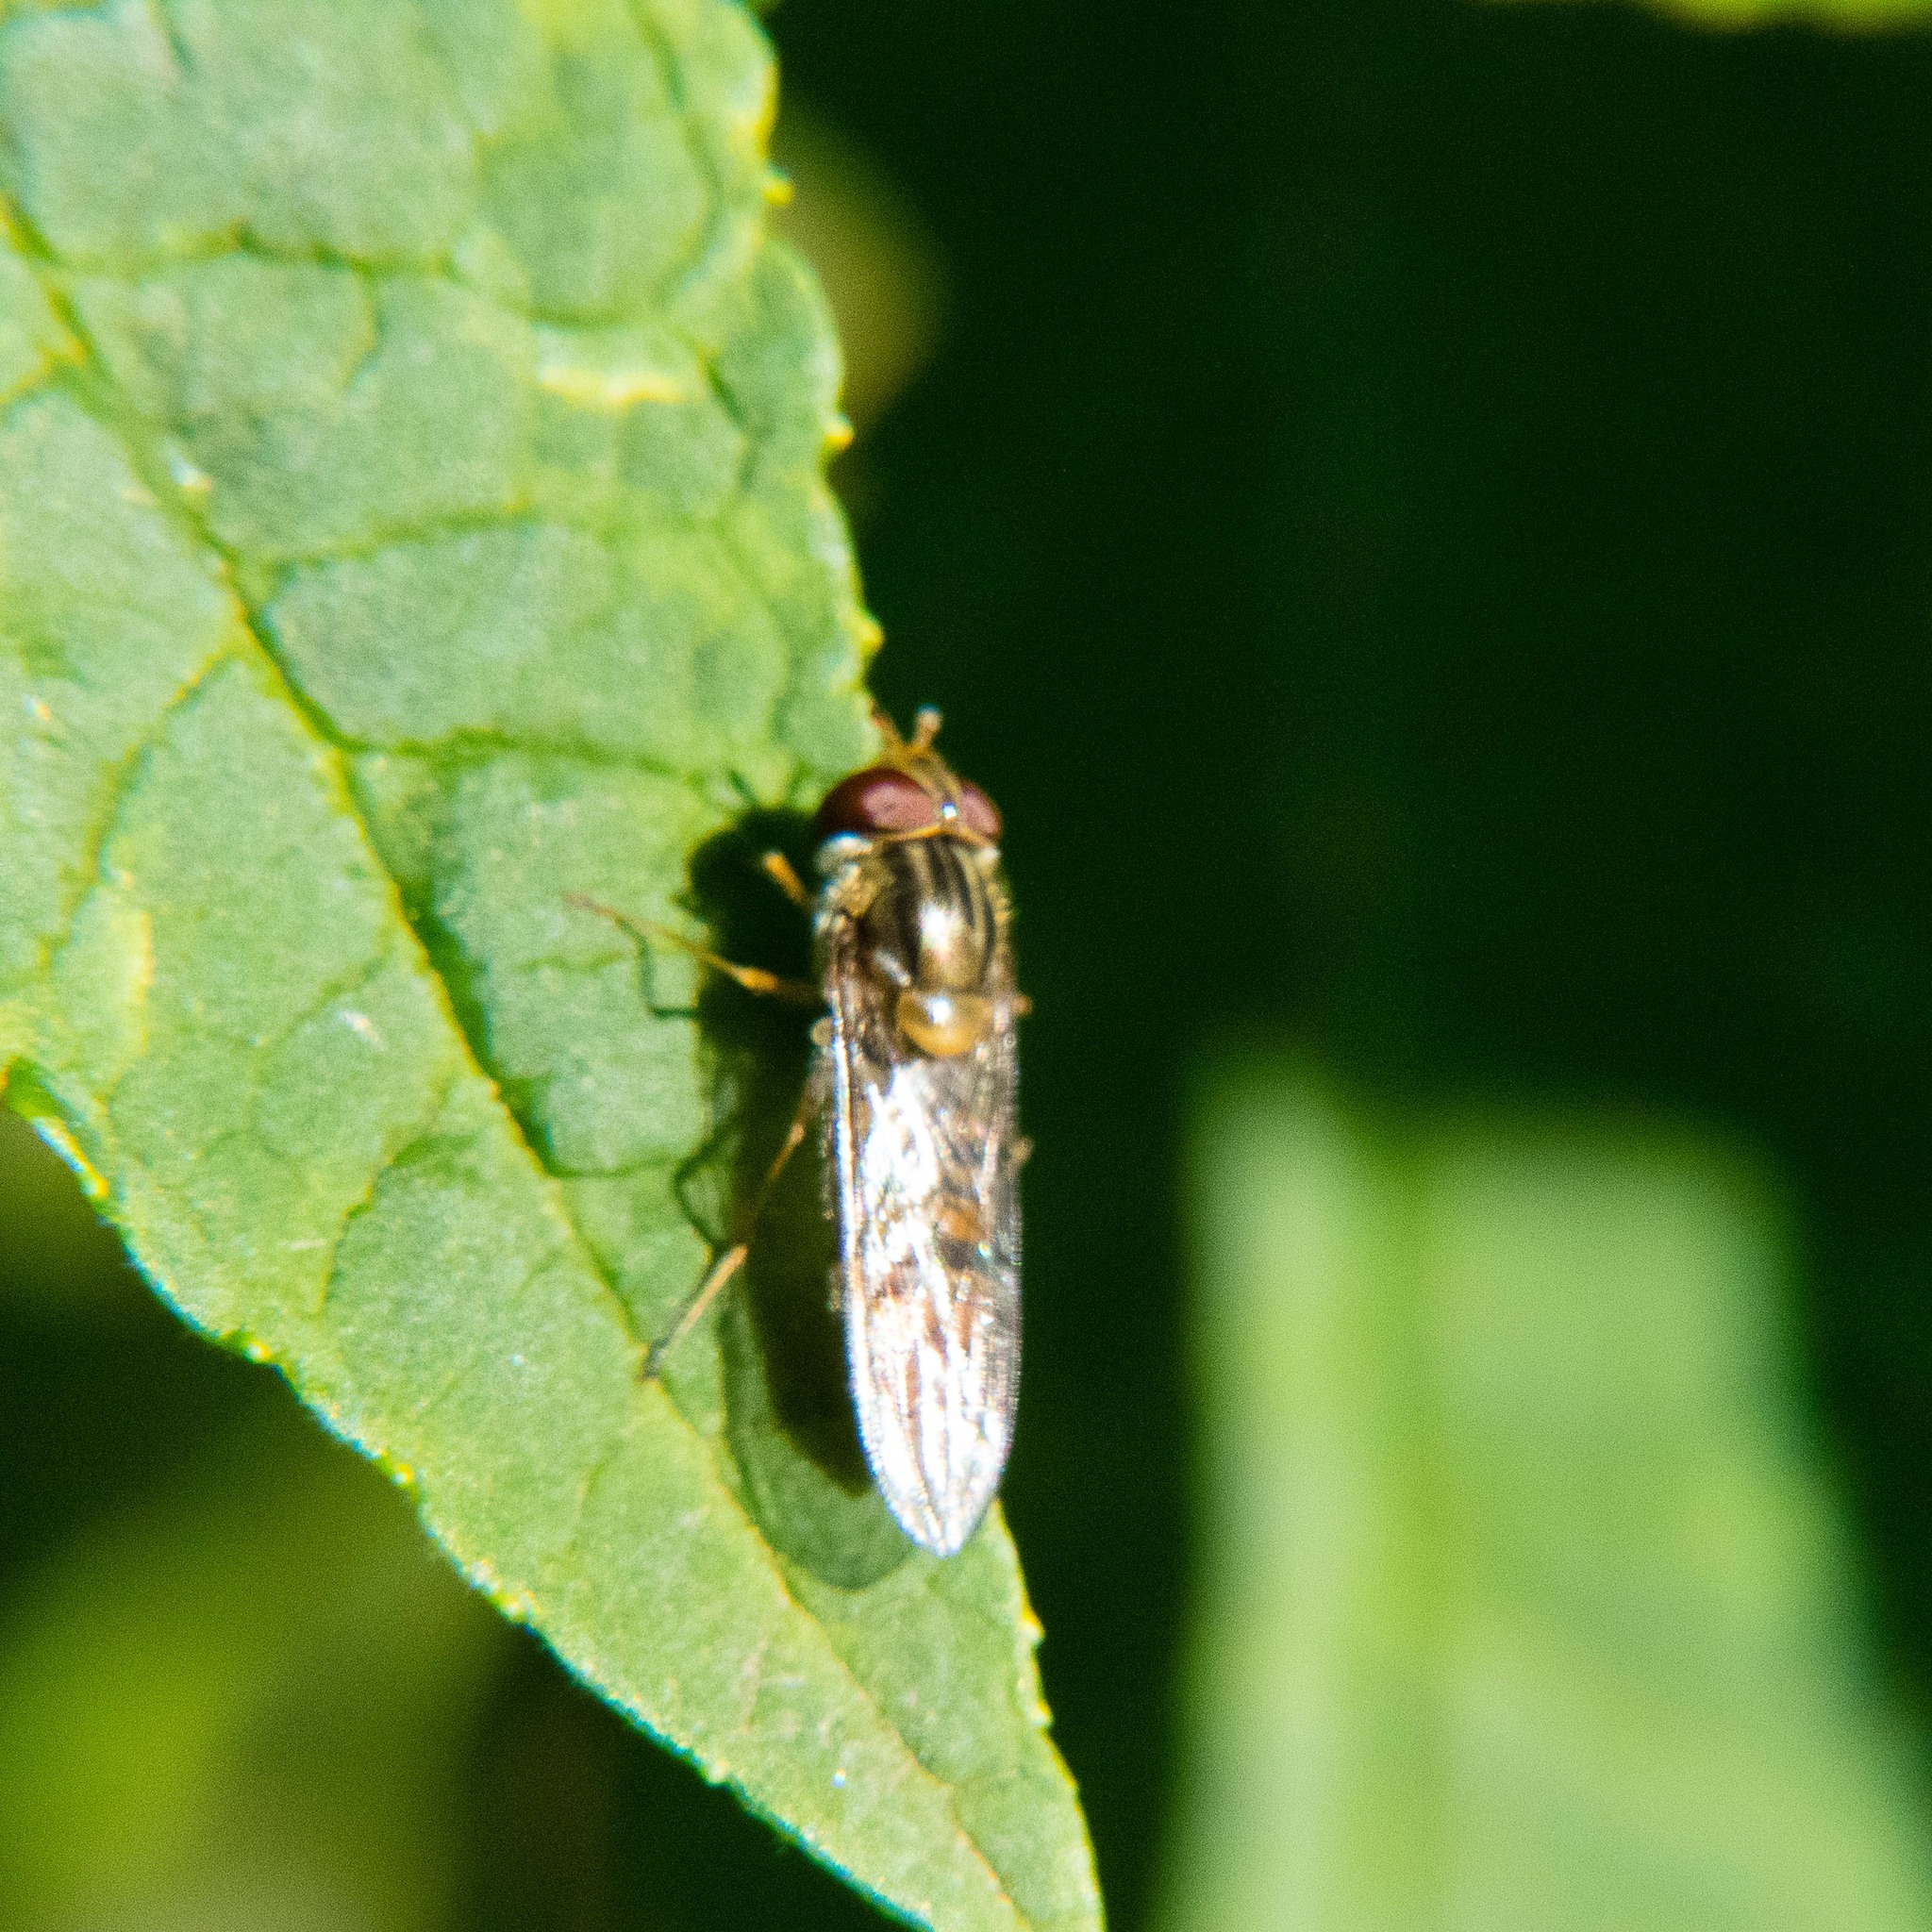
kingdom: Animalia
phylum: Arthropoda
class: Insecta
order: Diptera
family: Syrphidae
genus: Episyrphus
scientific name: Episyrphus balteatus
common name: Marmalade hoverfly
